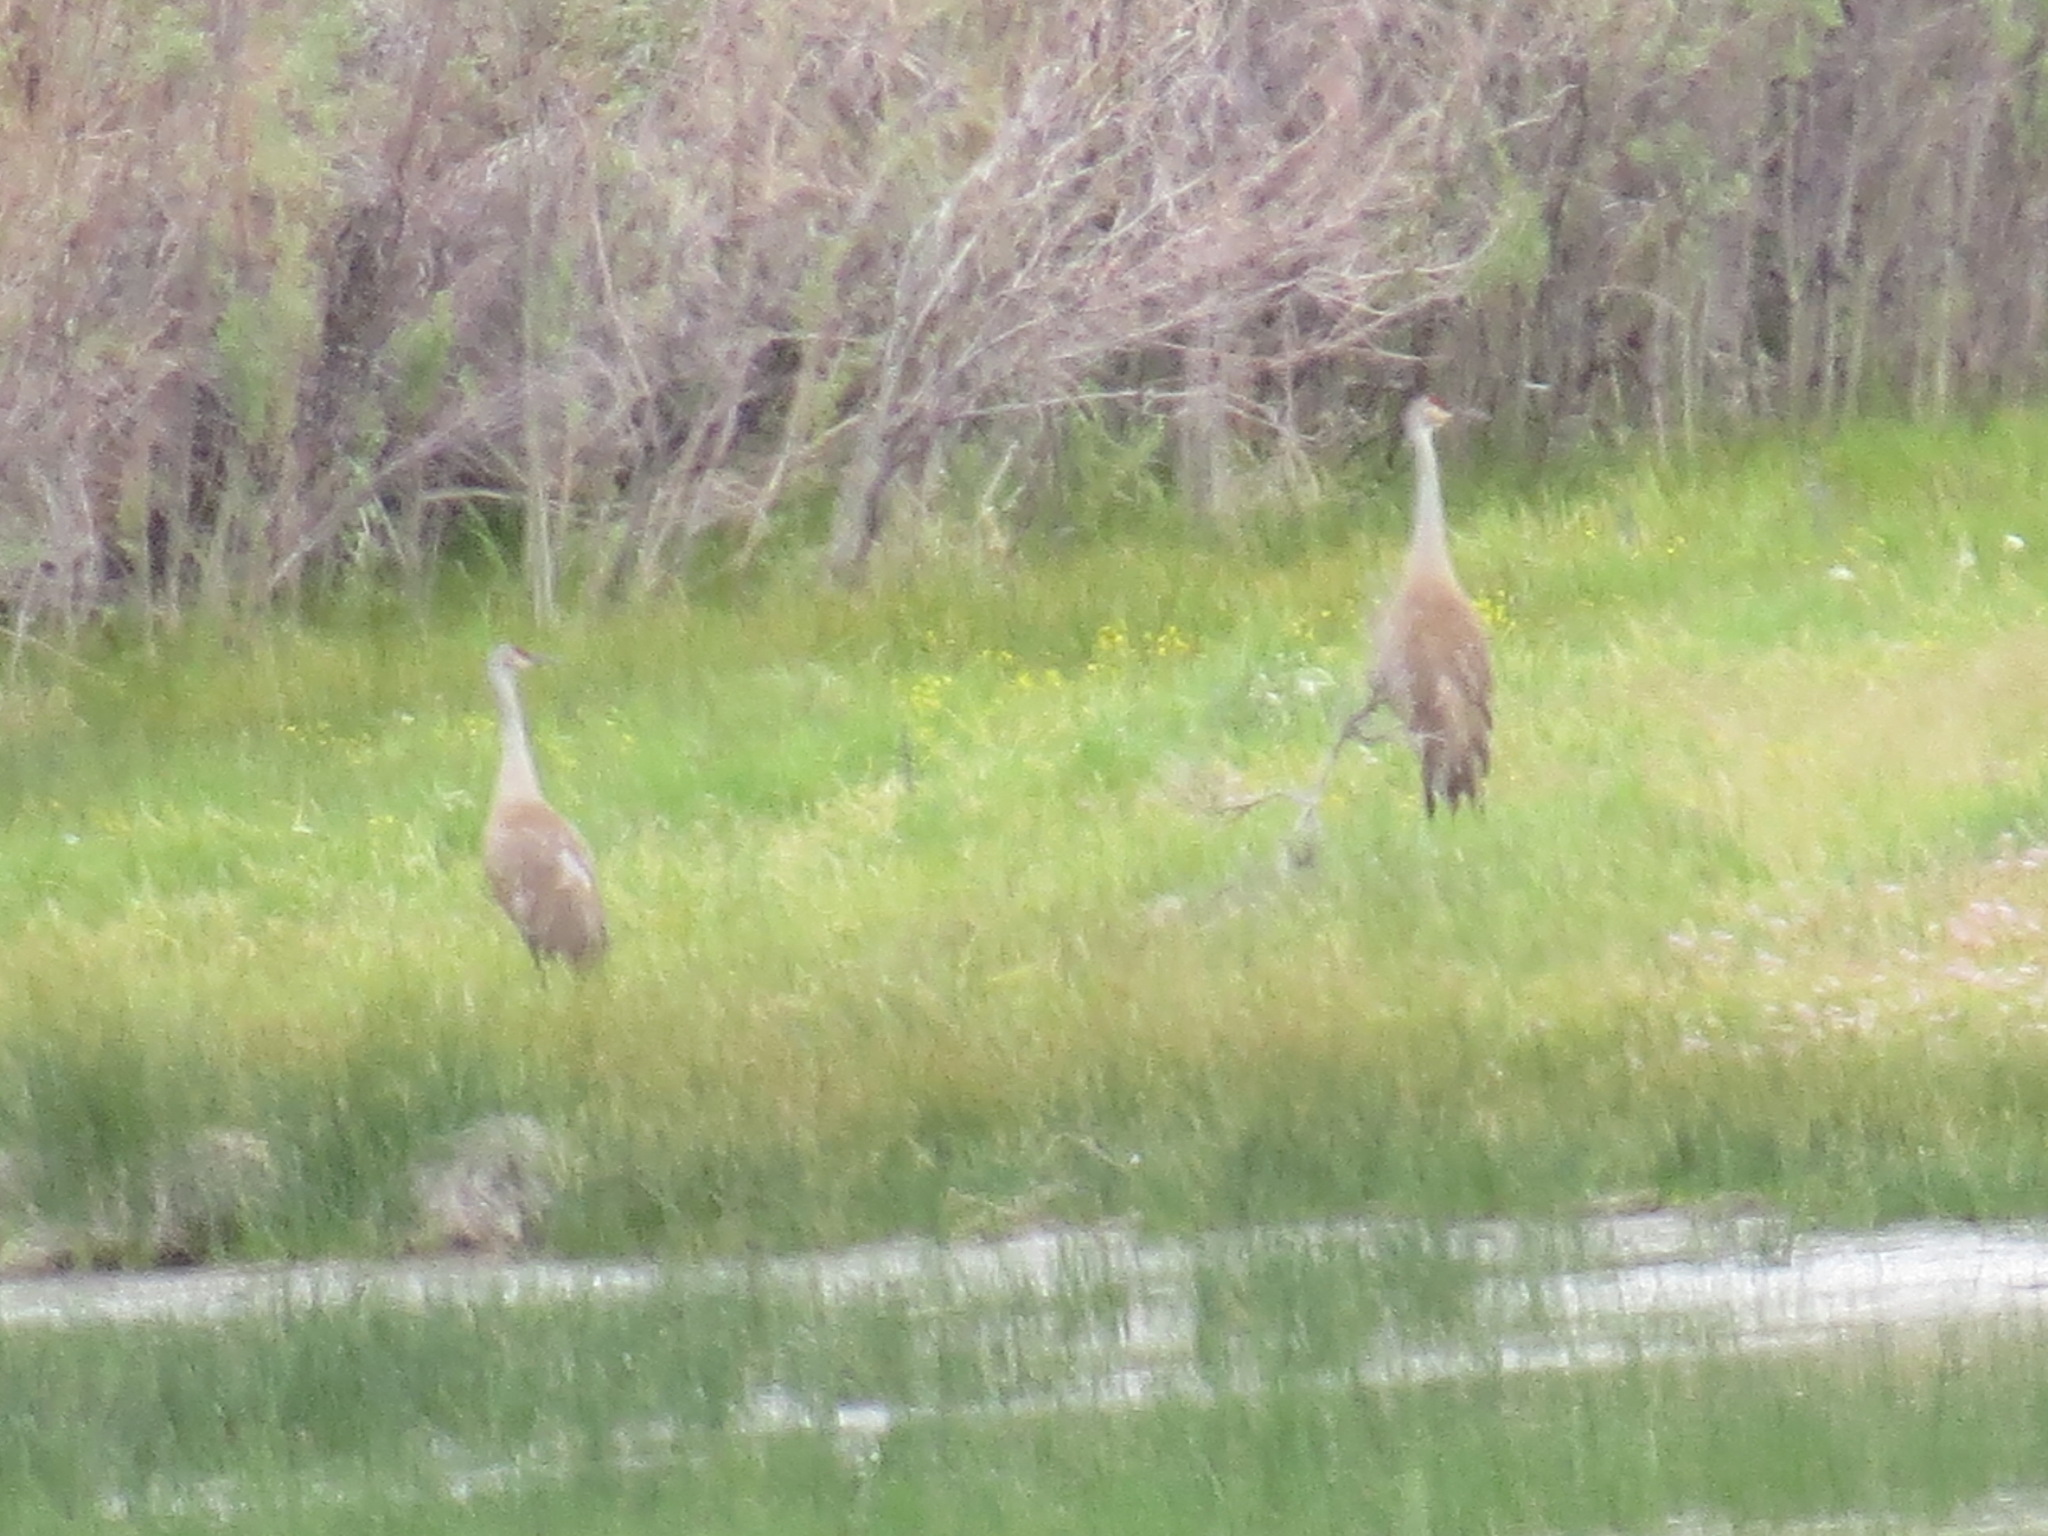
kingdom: Animalia
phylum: Chordata
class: Aves
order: Gruiformes
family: Gruidae
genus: Grus
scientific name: Grus canadensis
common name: Sandhill crane
